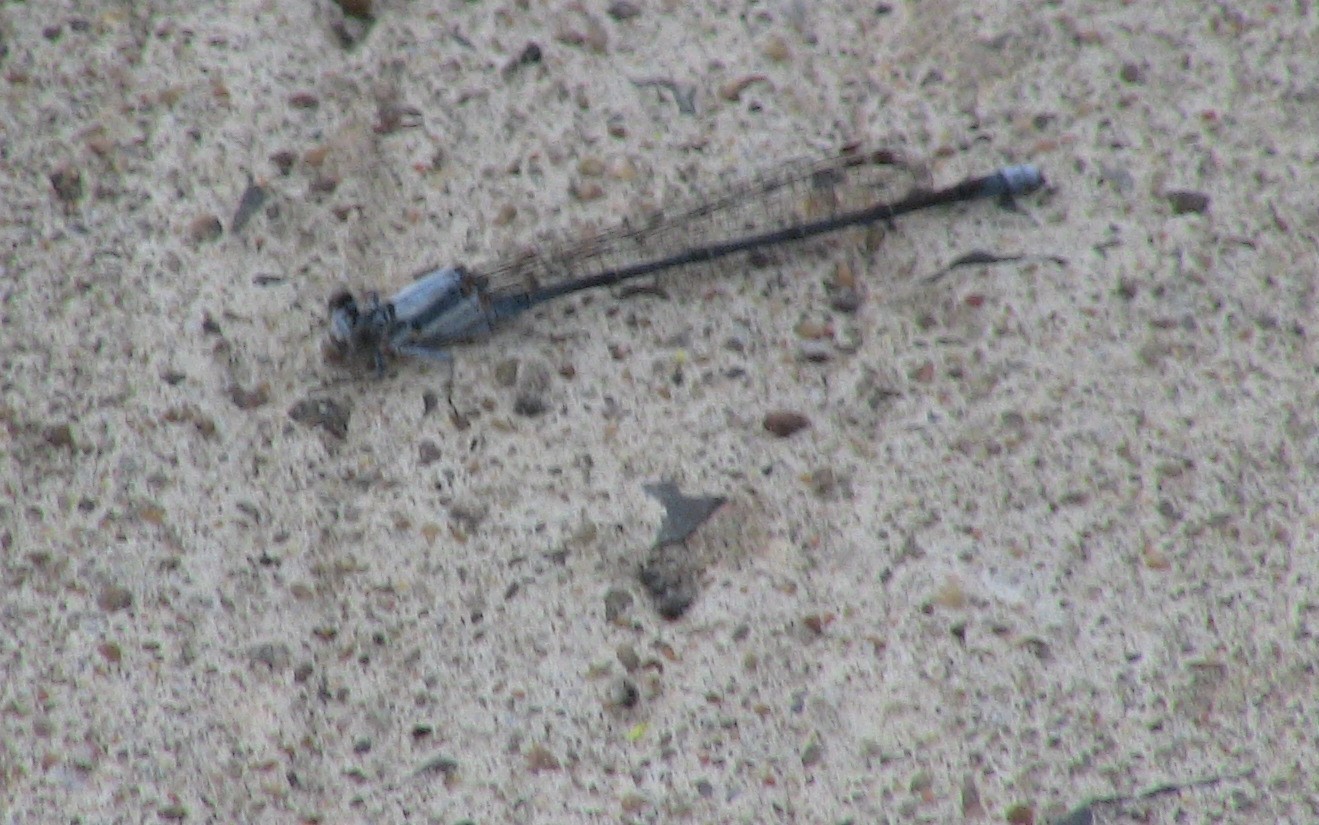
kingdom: Animalia
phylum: Arthropoda
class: Insecta
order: Odonata
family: Coenagrionidae
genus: Argia
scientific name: Argia moesta
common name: Powdered dancer
